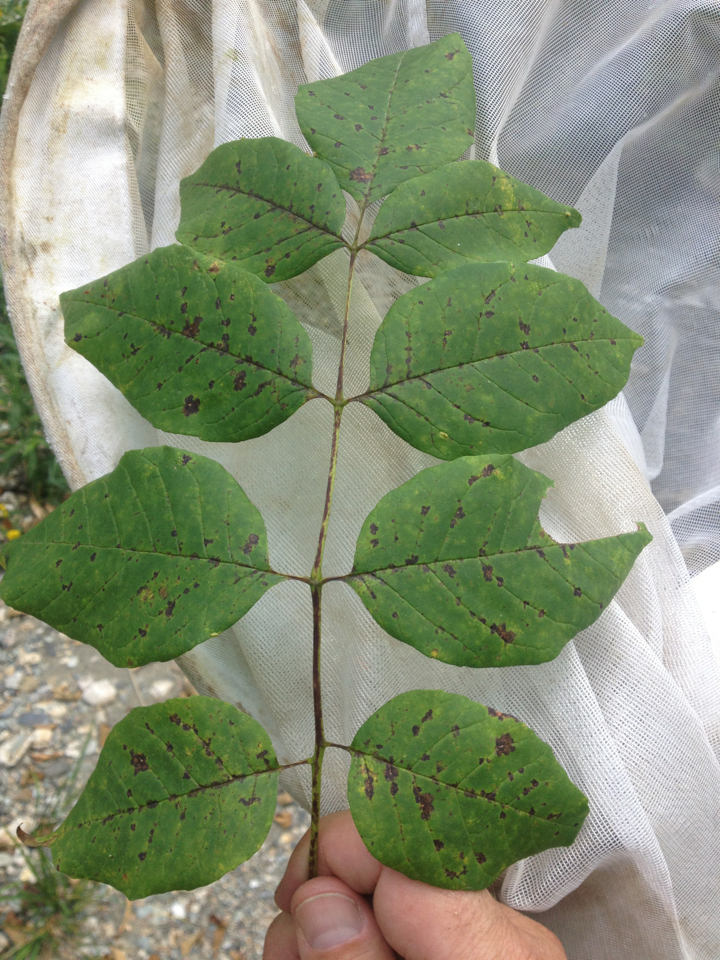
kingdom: Plantae
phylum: Tracheophyta
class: Magnoliopsida
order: Lamiales
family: Oleaceae
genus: Fraxinus
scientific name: Fraxinus americana
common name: White ash
